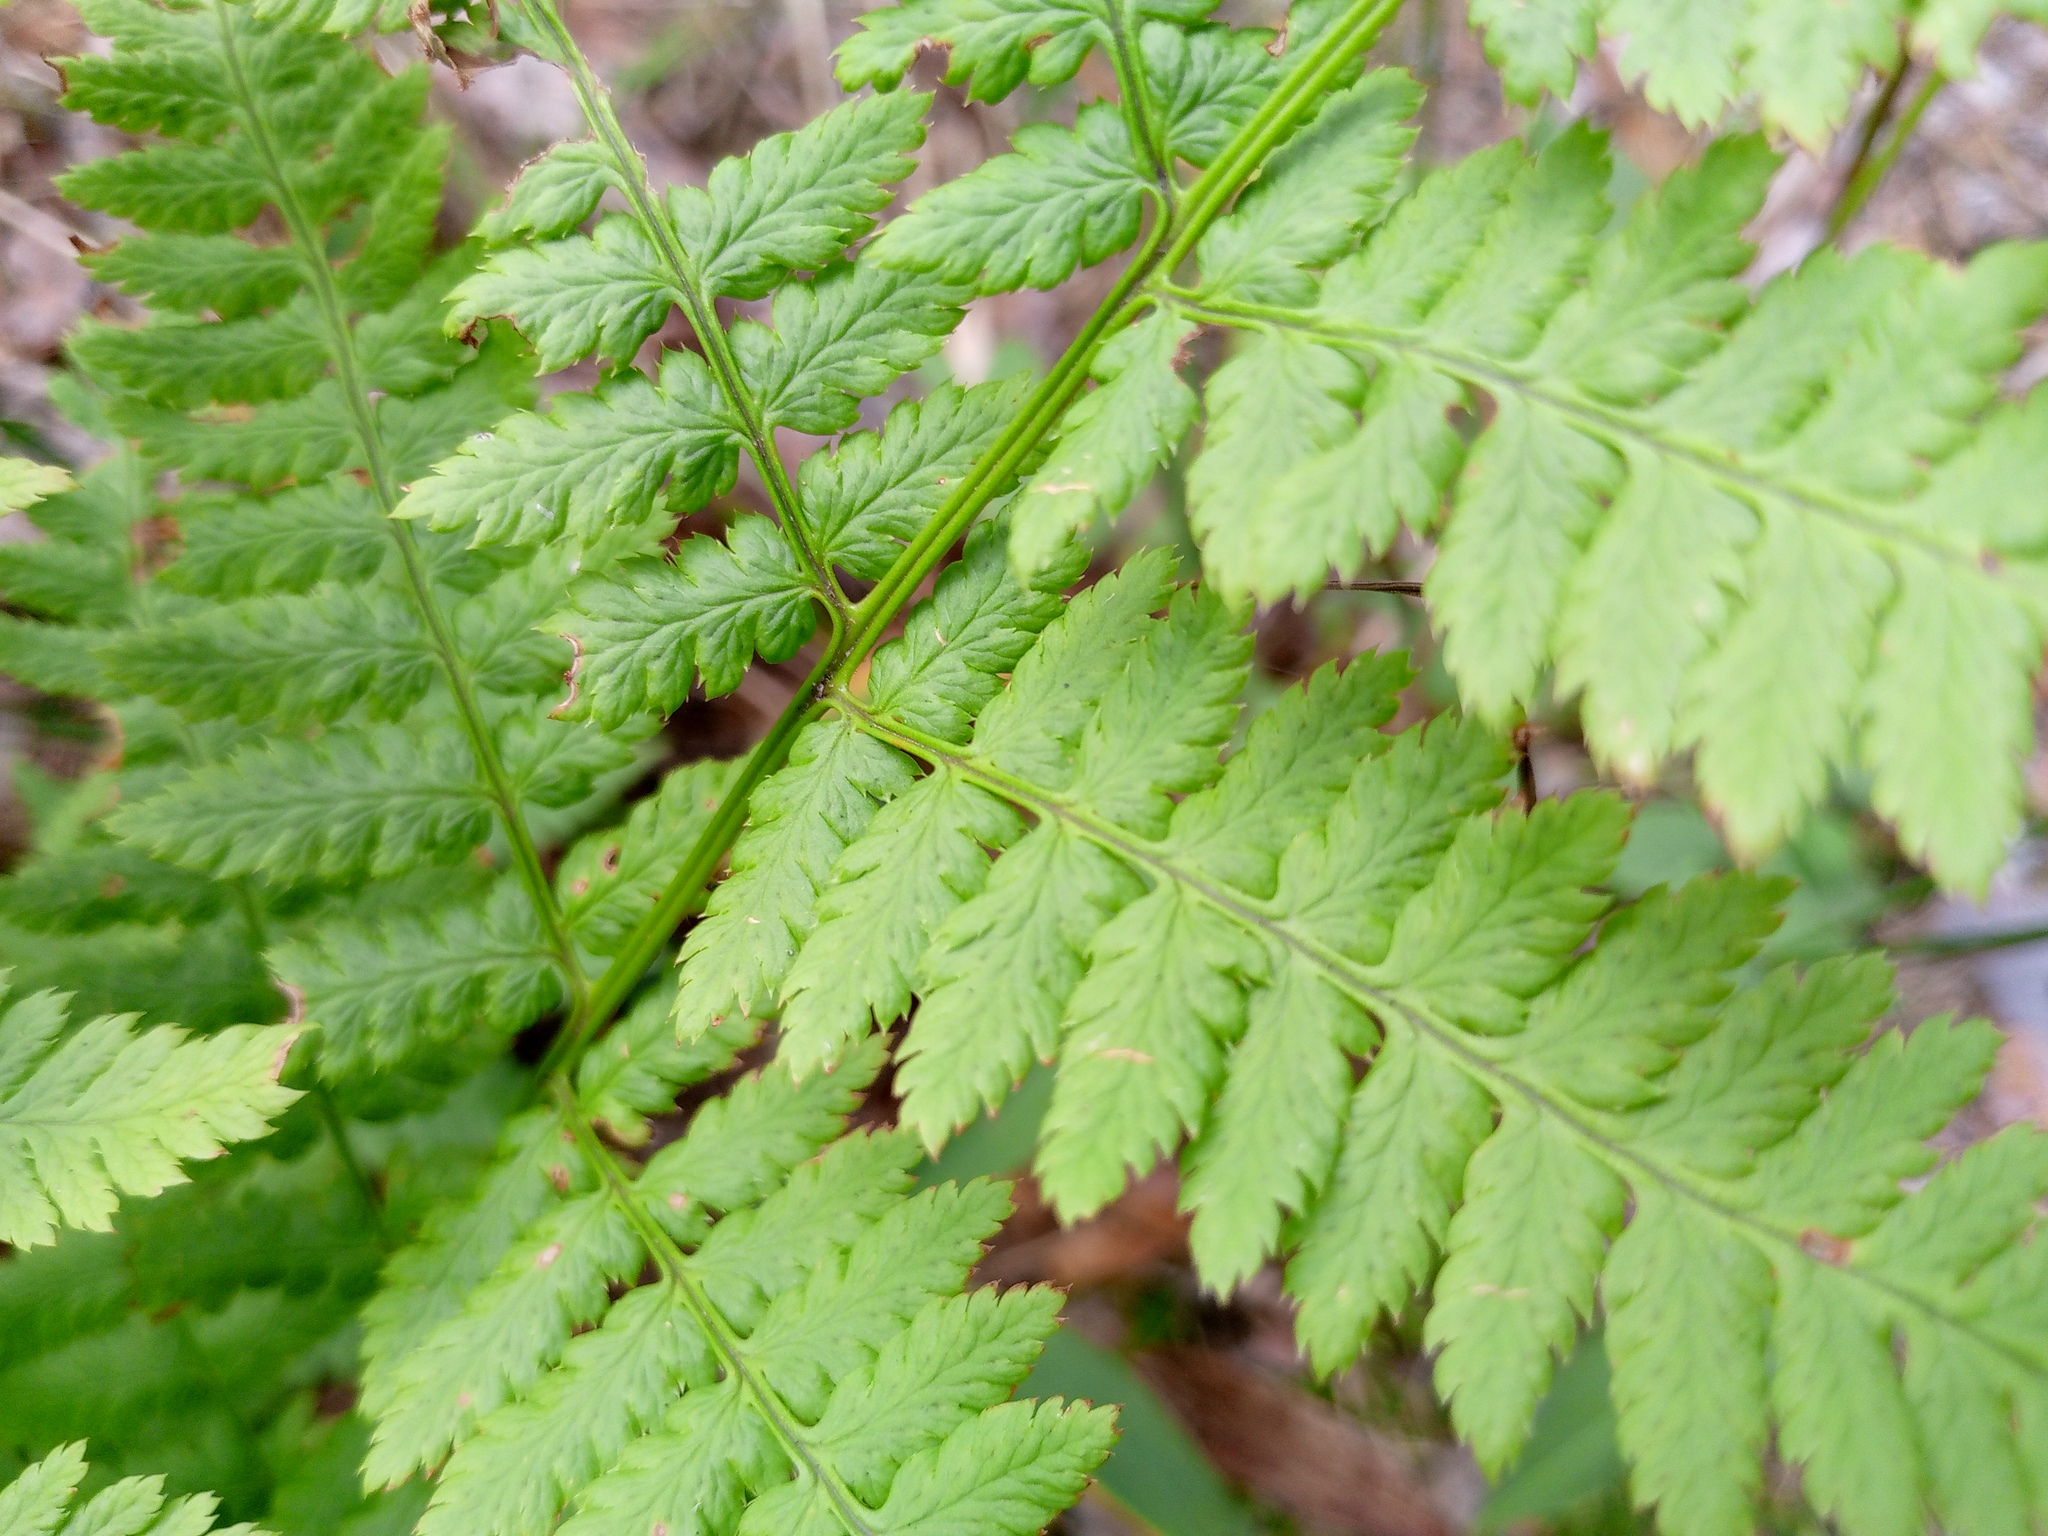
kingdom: Plantae
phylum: Tracheophyta
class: Polypodiopsida
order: Polypodiales
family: Dryopteridaceae
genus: Dryopteris
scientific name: Dryopteris carthusiana
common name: Narrow buckler-fern
